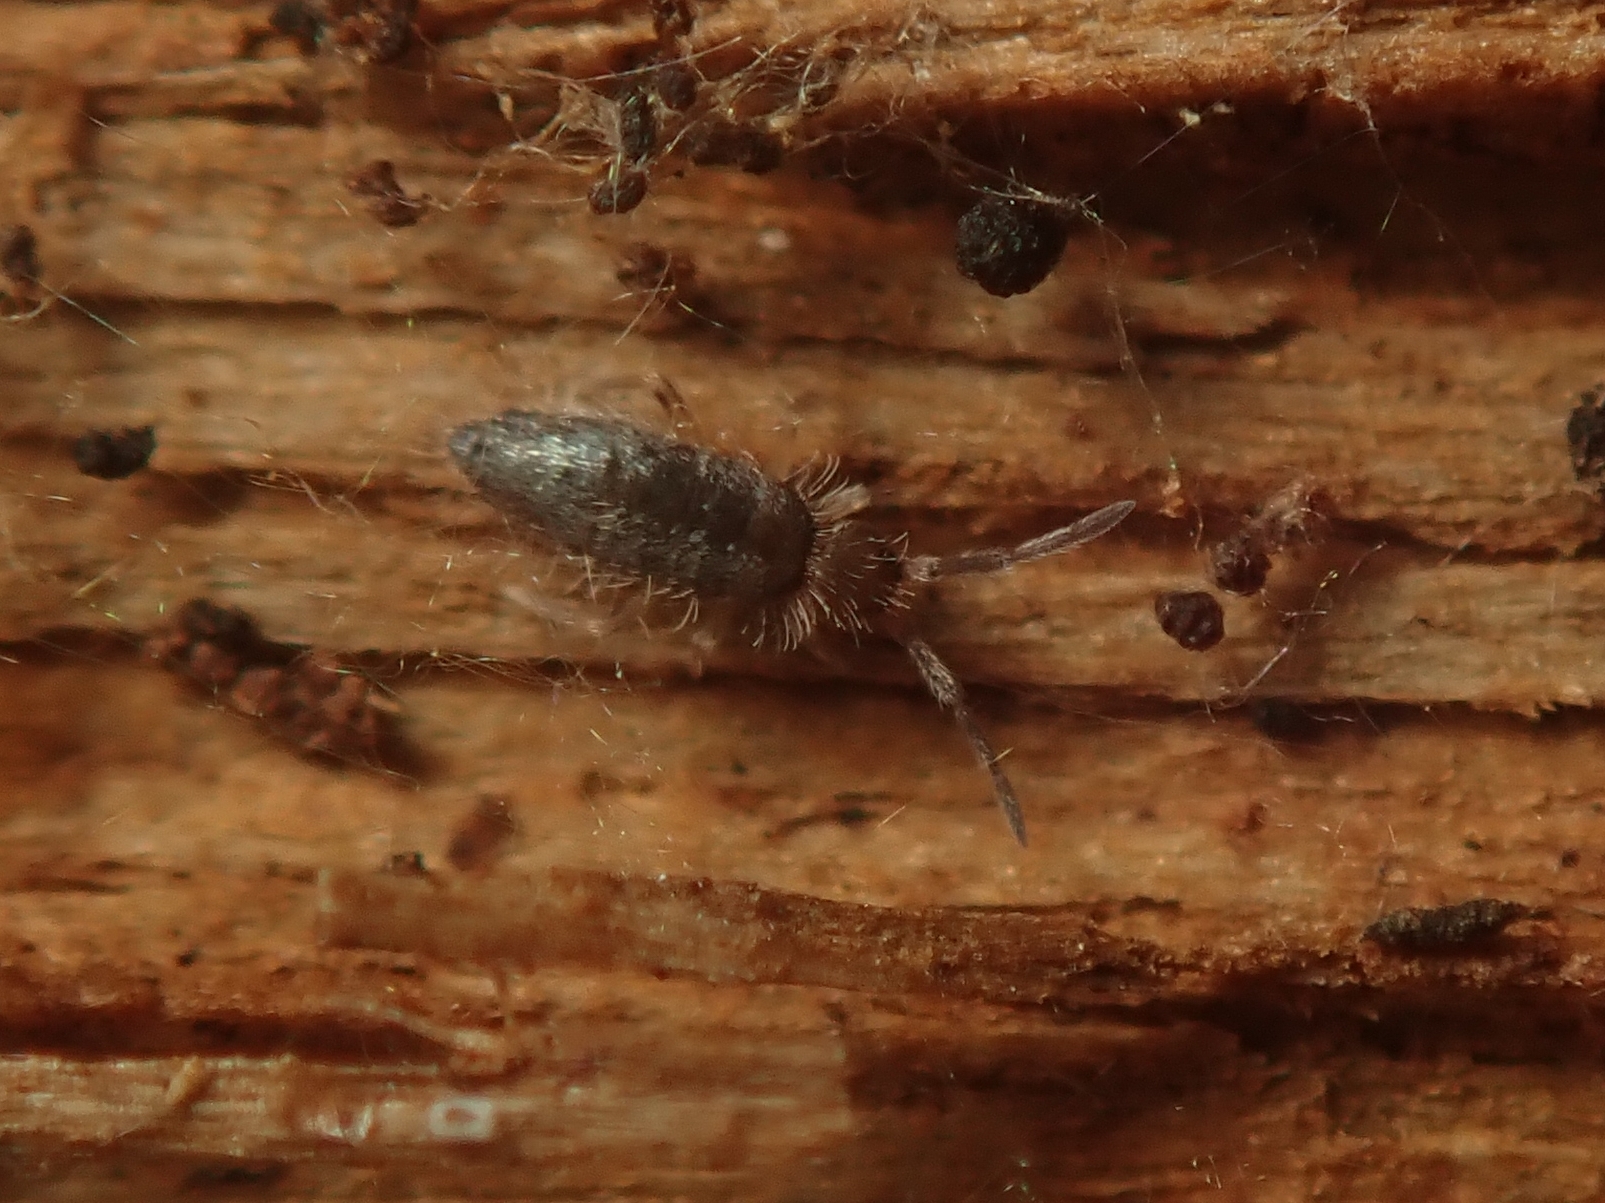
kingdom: Animalia
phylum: Arthropoda
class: Collembola
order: Entomobryomorpha
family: Entomobryidae
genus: Willowsia
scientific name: Willowsia buski
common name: Damp grain springtail
